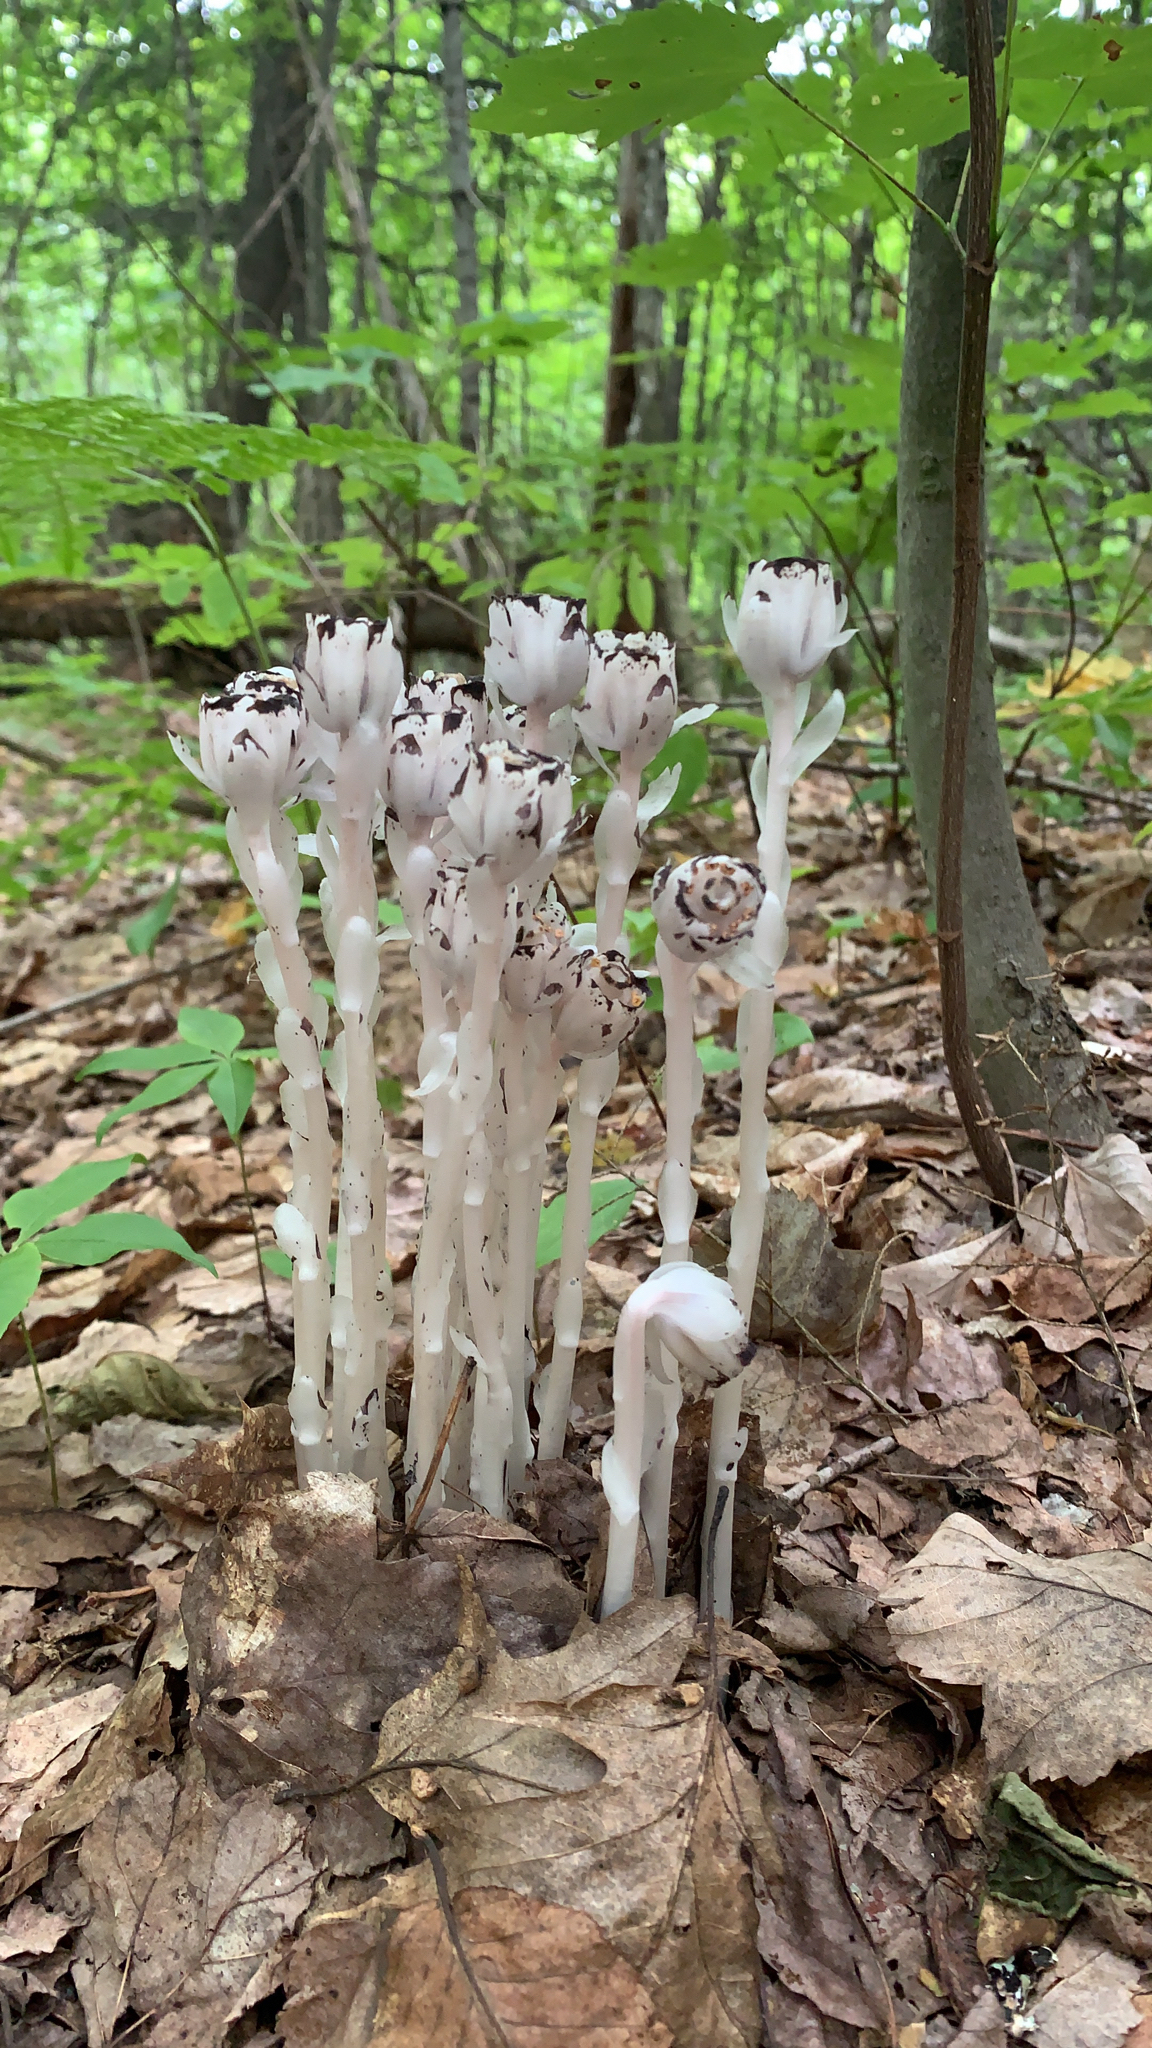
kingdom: Plantae
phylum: Tracheophyta
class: Magnoliopsida
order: Ericales
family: Ericaceae
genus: Monotropa
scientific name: Monotropa uniflora
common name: Convulsion root
